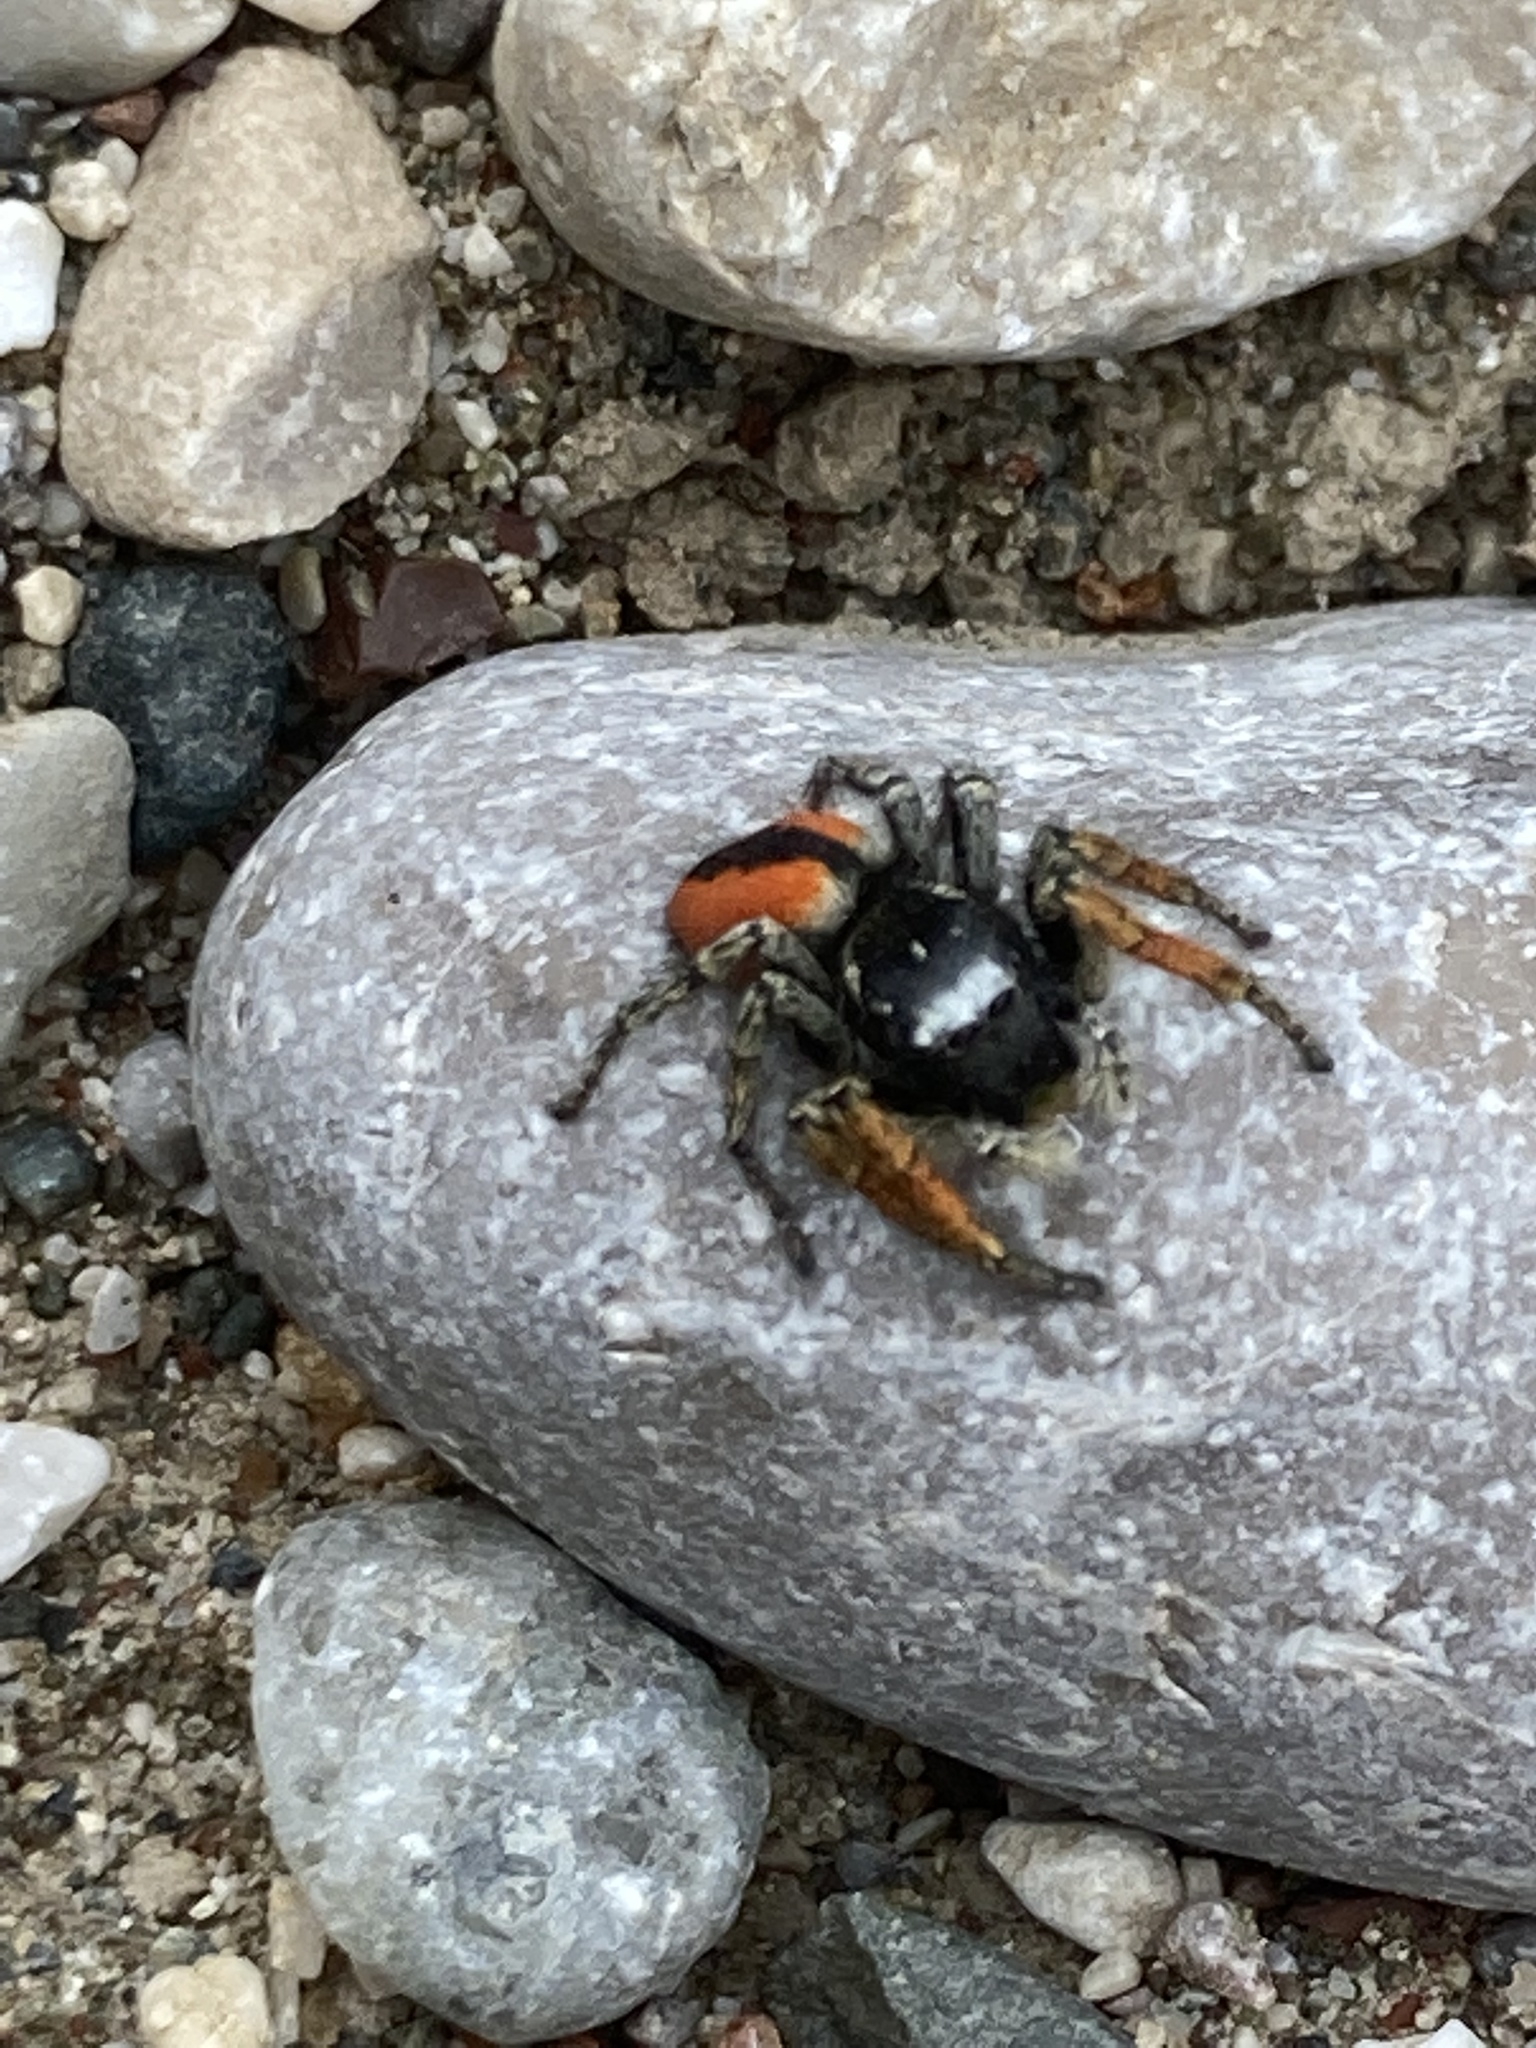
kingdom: Animalia
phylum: Arthropoda
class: Arachnida
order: Araneae
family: Salticidae
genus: Philaeus
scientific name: Philaeus chrysops
